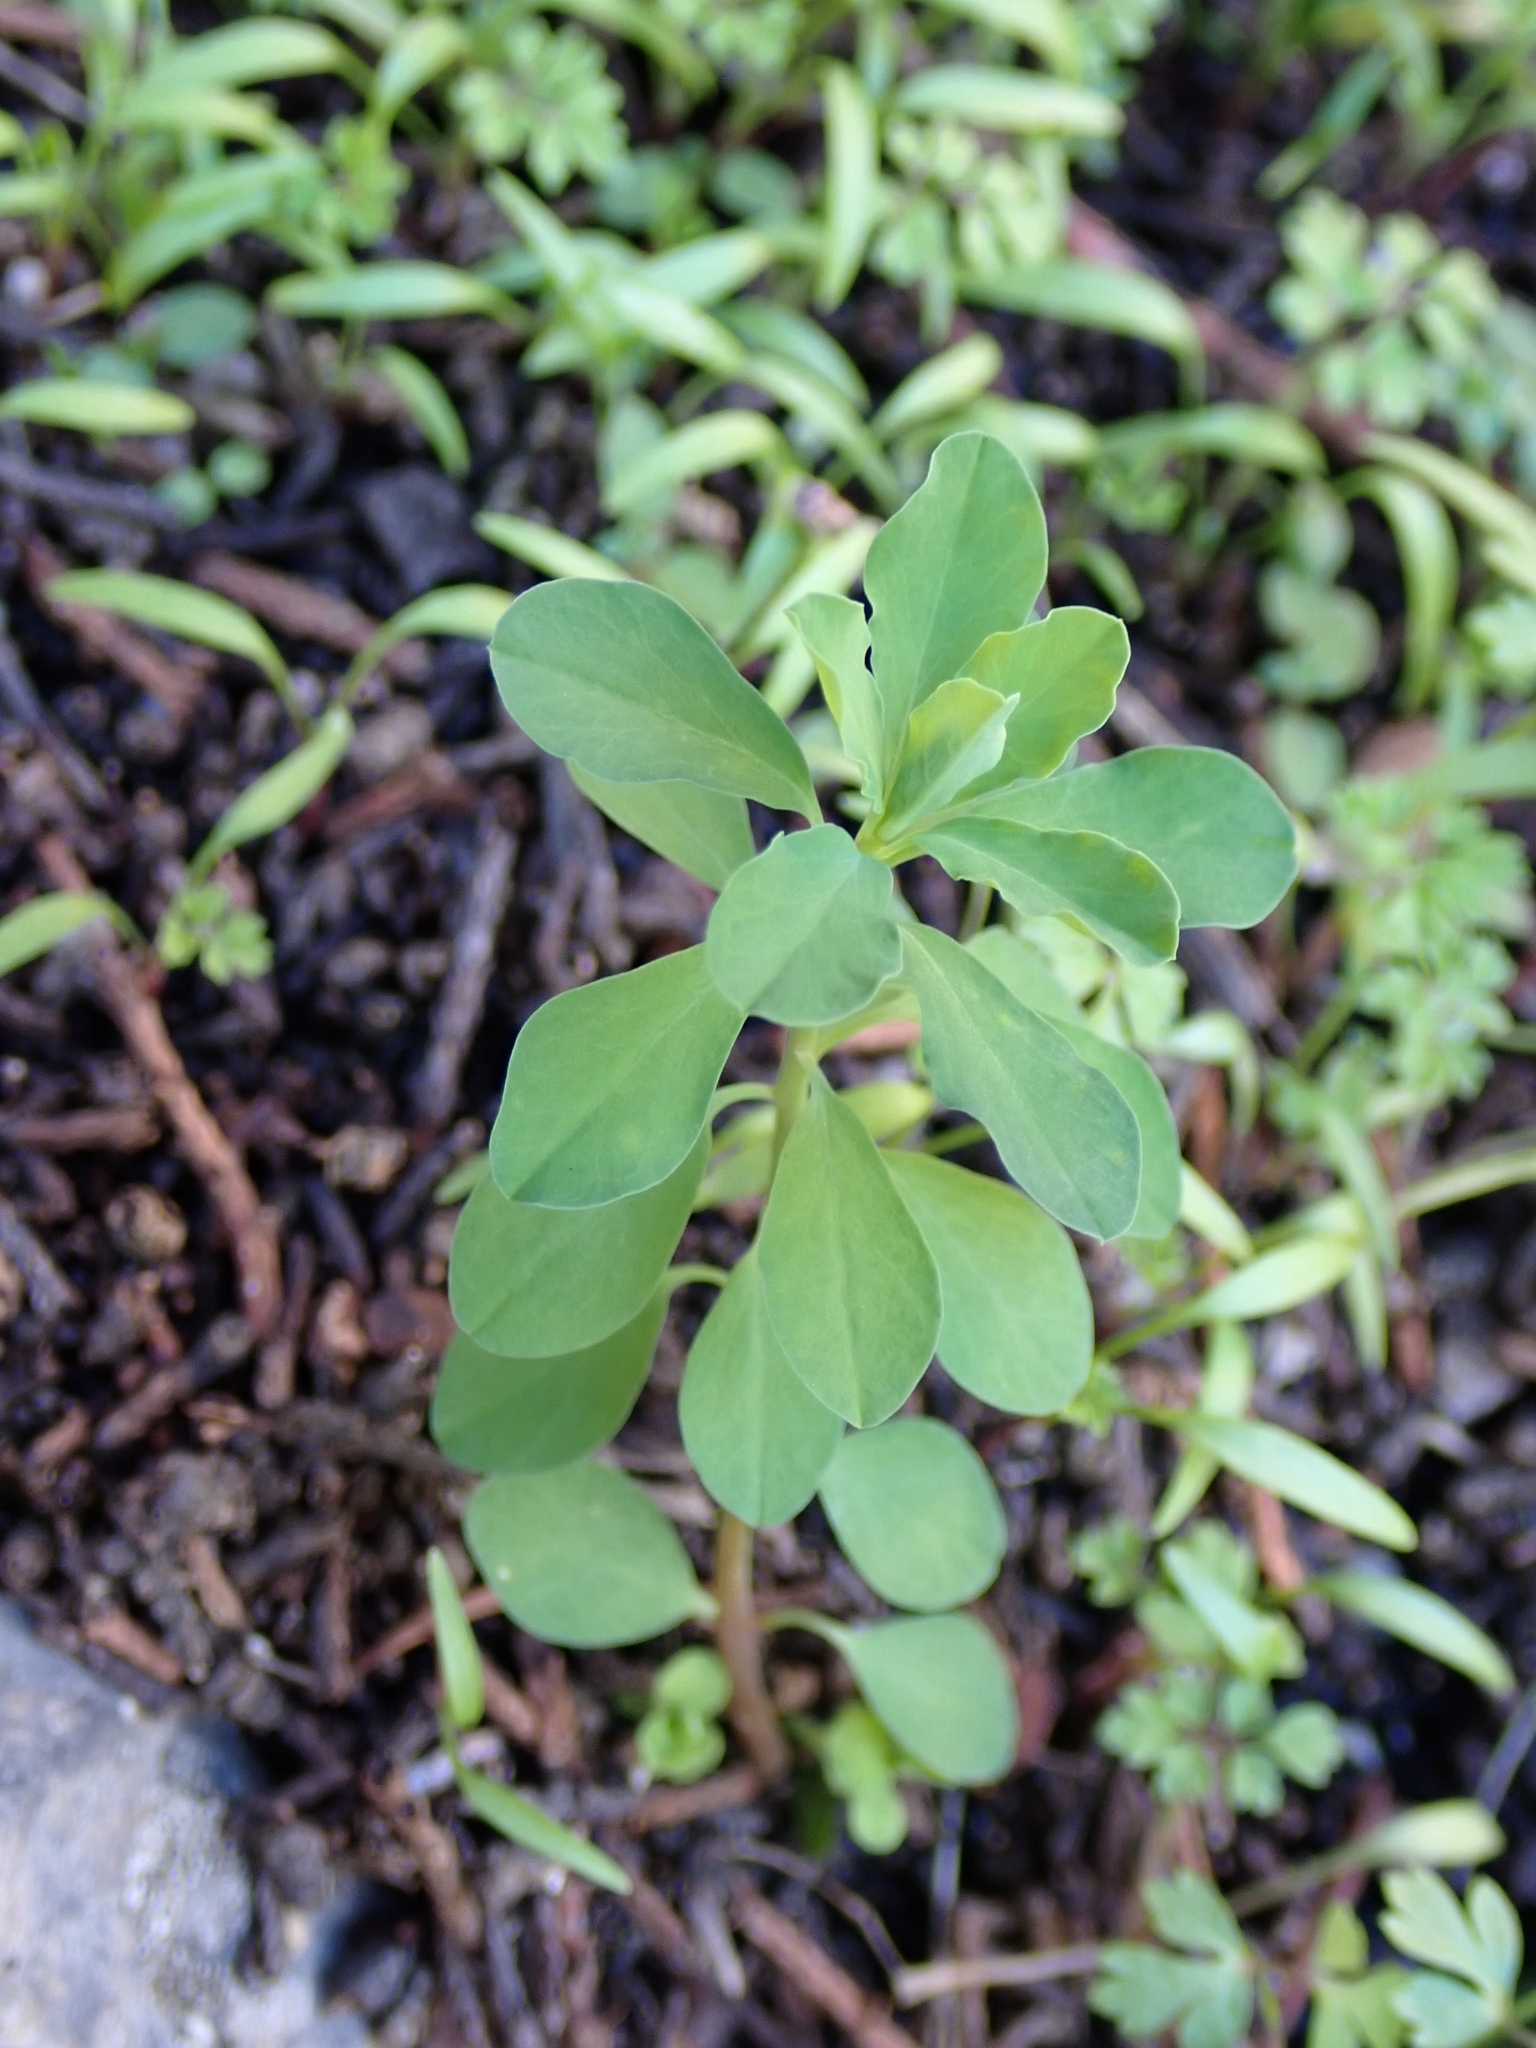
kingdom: Plantae
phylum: Tracheophyta
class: Magnoliopsida
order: Malpighiales
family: Euphorbiaceae
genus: Euphorbia
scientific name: Euphorbia peplus
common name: Petty spurge
